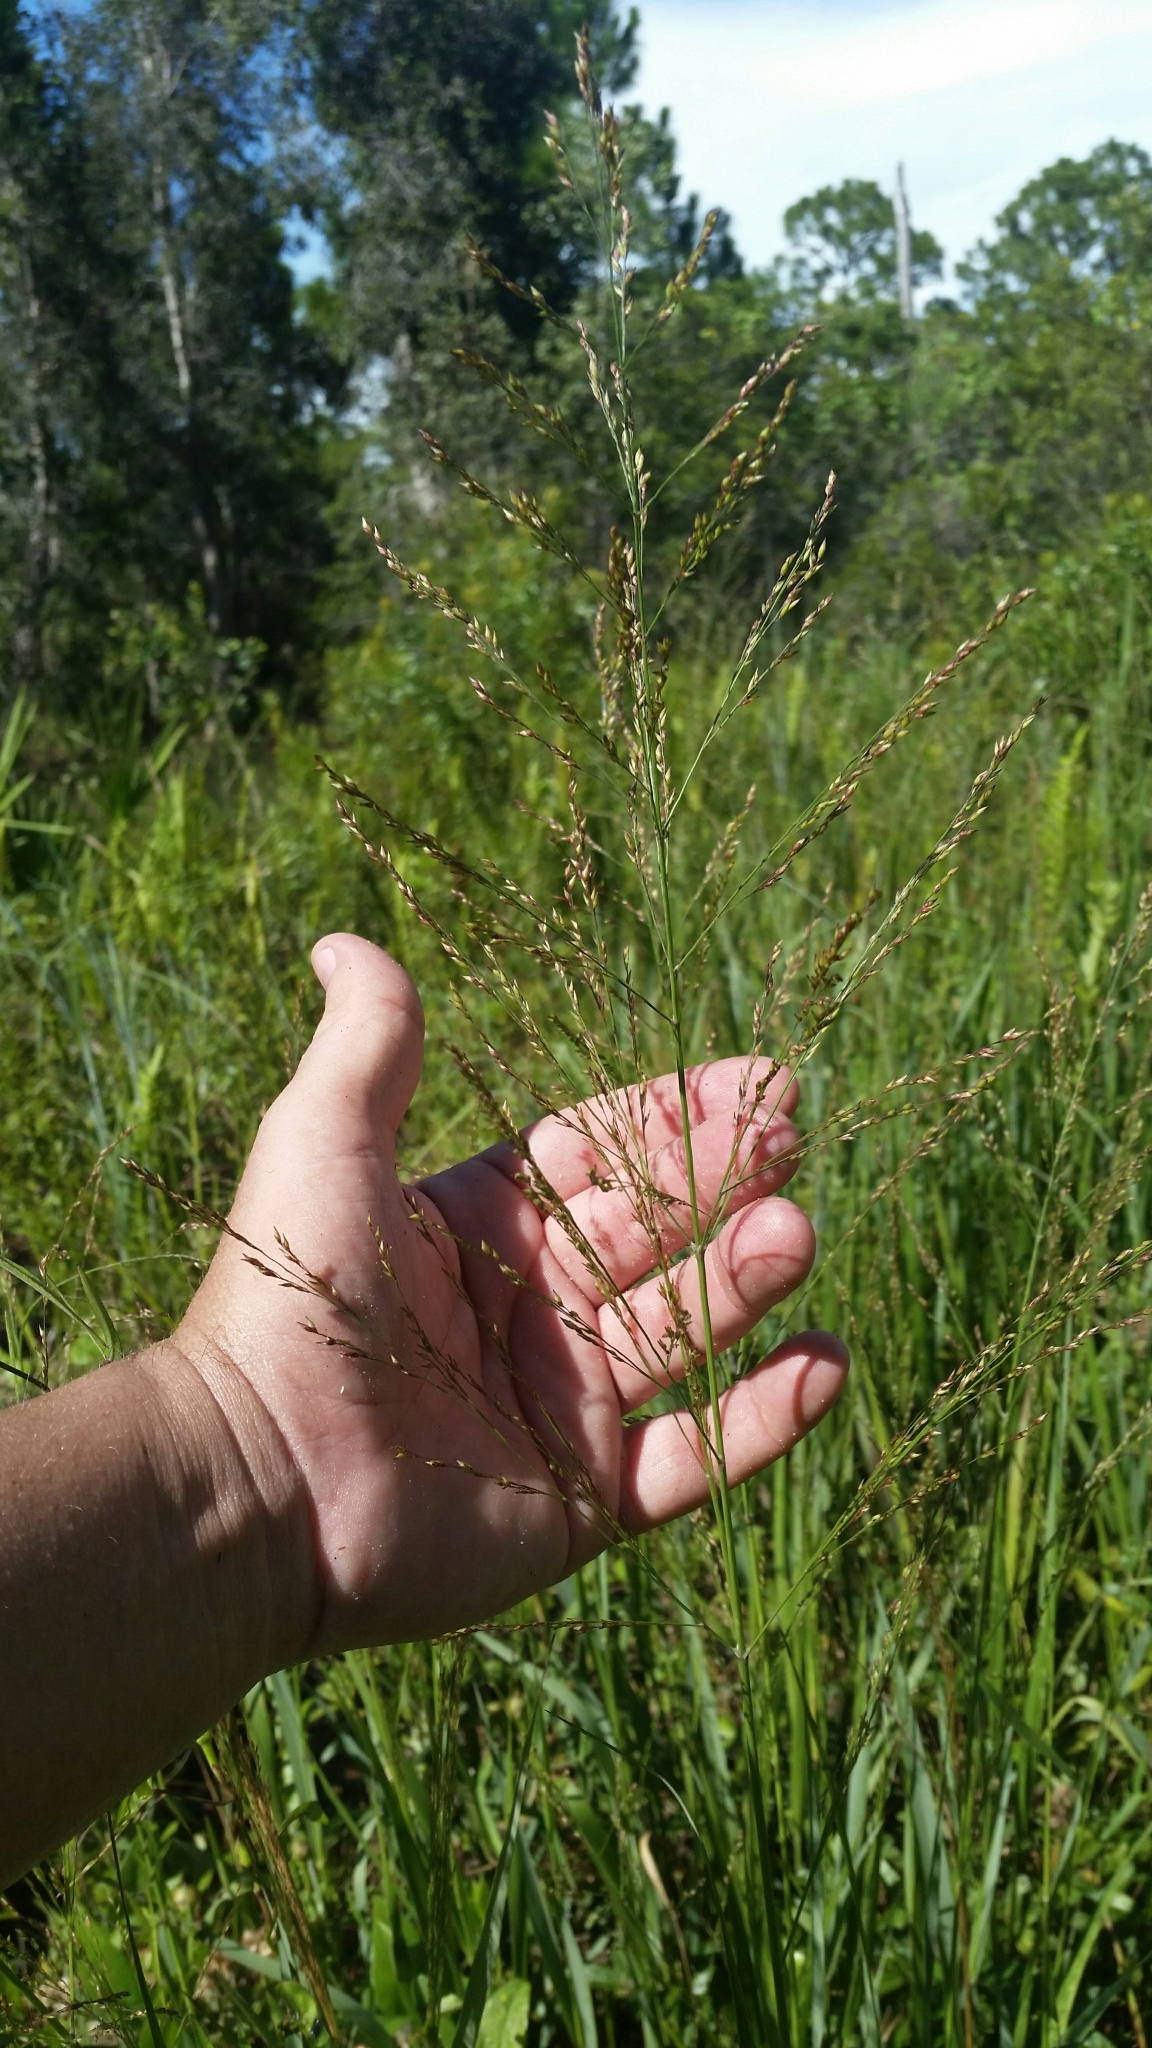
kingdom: Plantae
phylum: Tracheophyta
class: Liliopsida
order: Poales
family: Poaceae
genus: Coleataenia
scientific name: Coleataenia anceps
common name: Beaked panic grass
